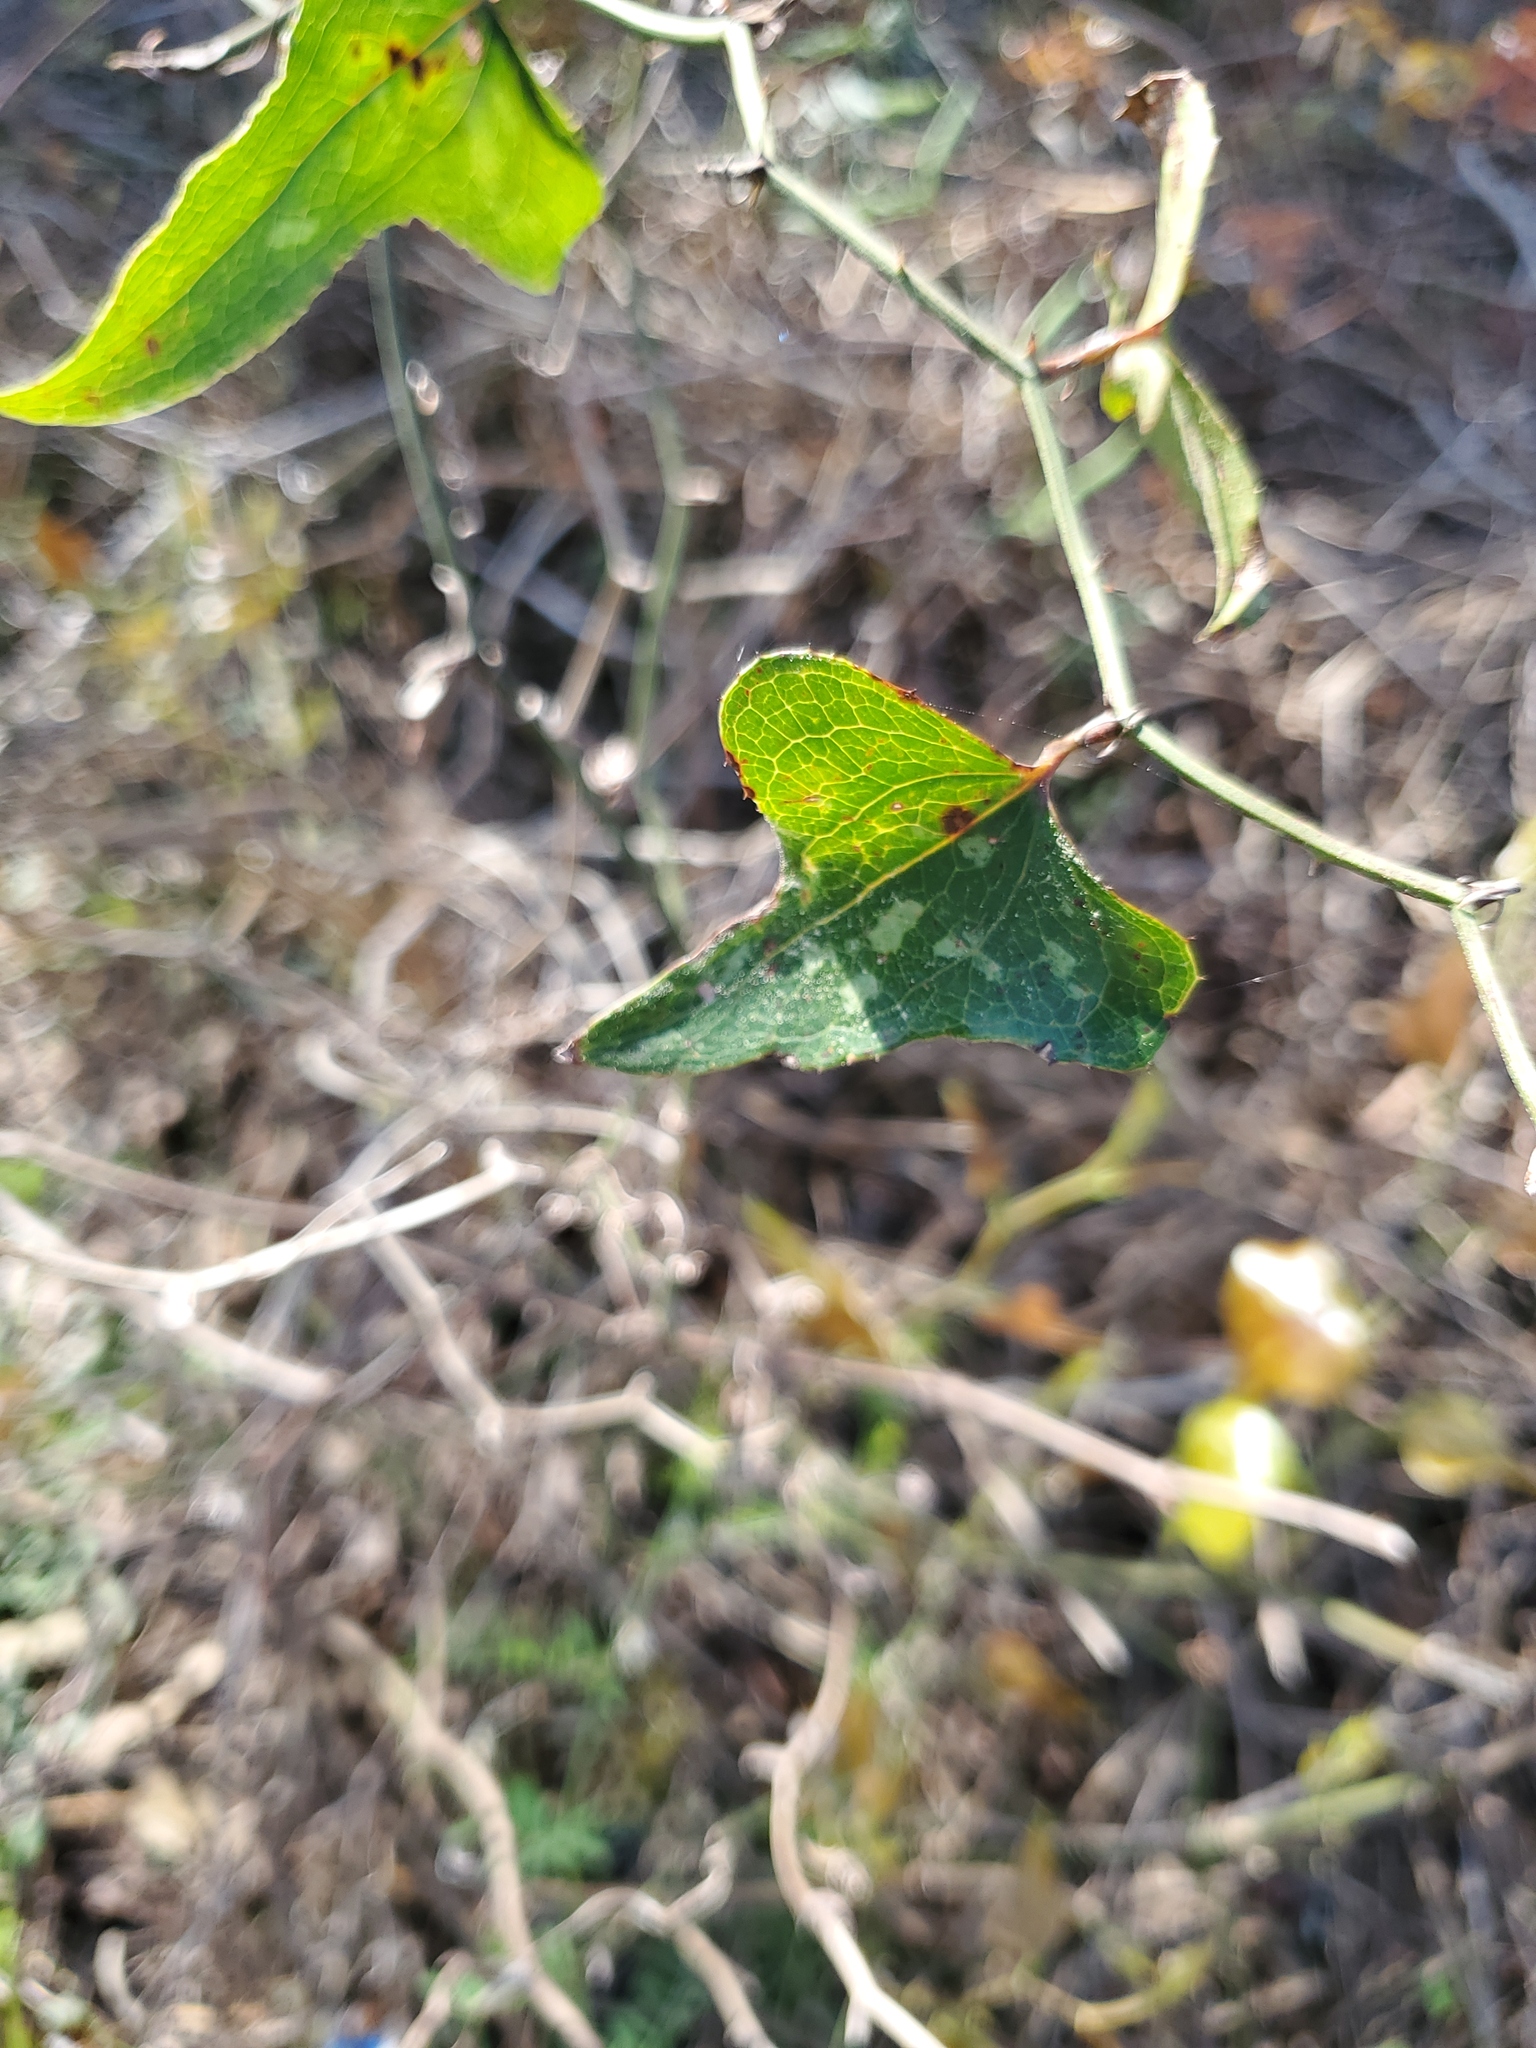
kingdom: Plantae
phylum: Tracheophyta
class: Liliopsida
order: Liliales
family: Smilacaceae
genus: Smilax
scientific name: Smilax bona-nox
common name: Catbrier
